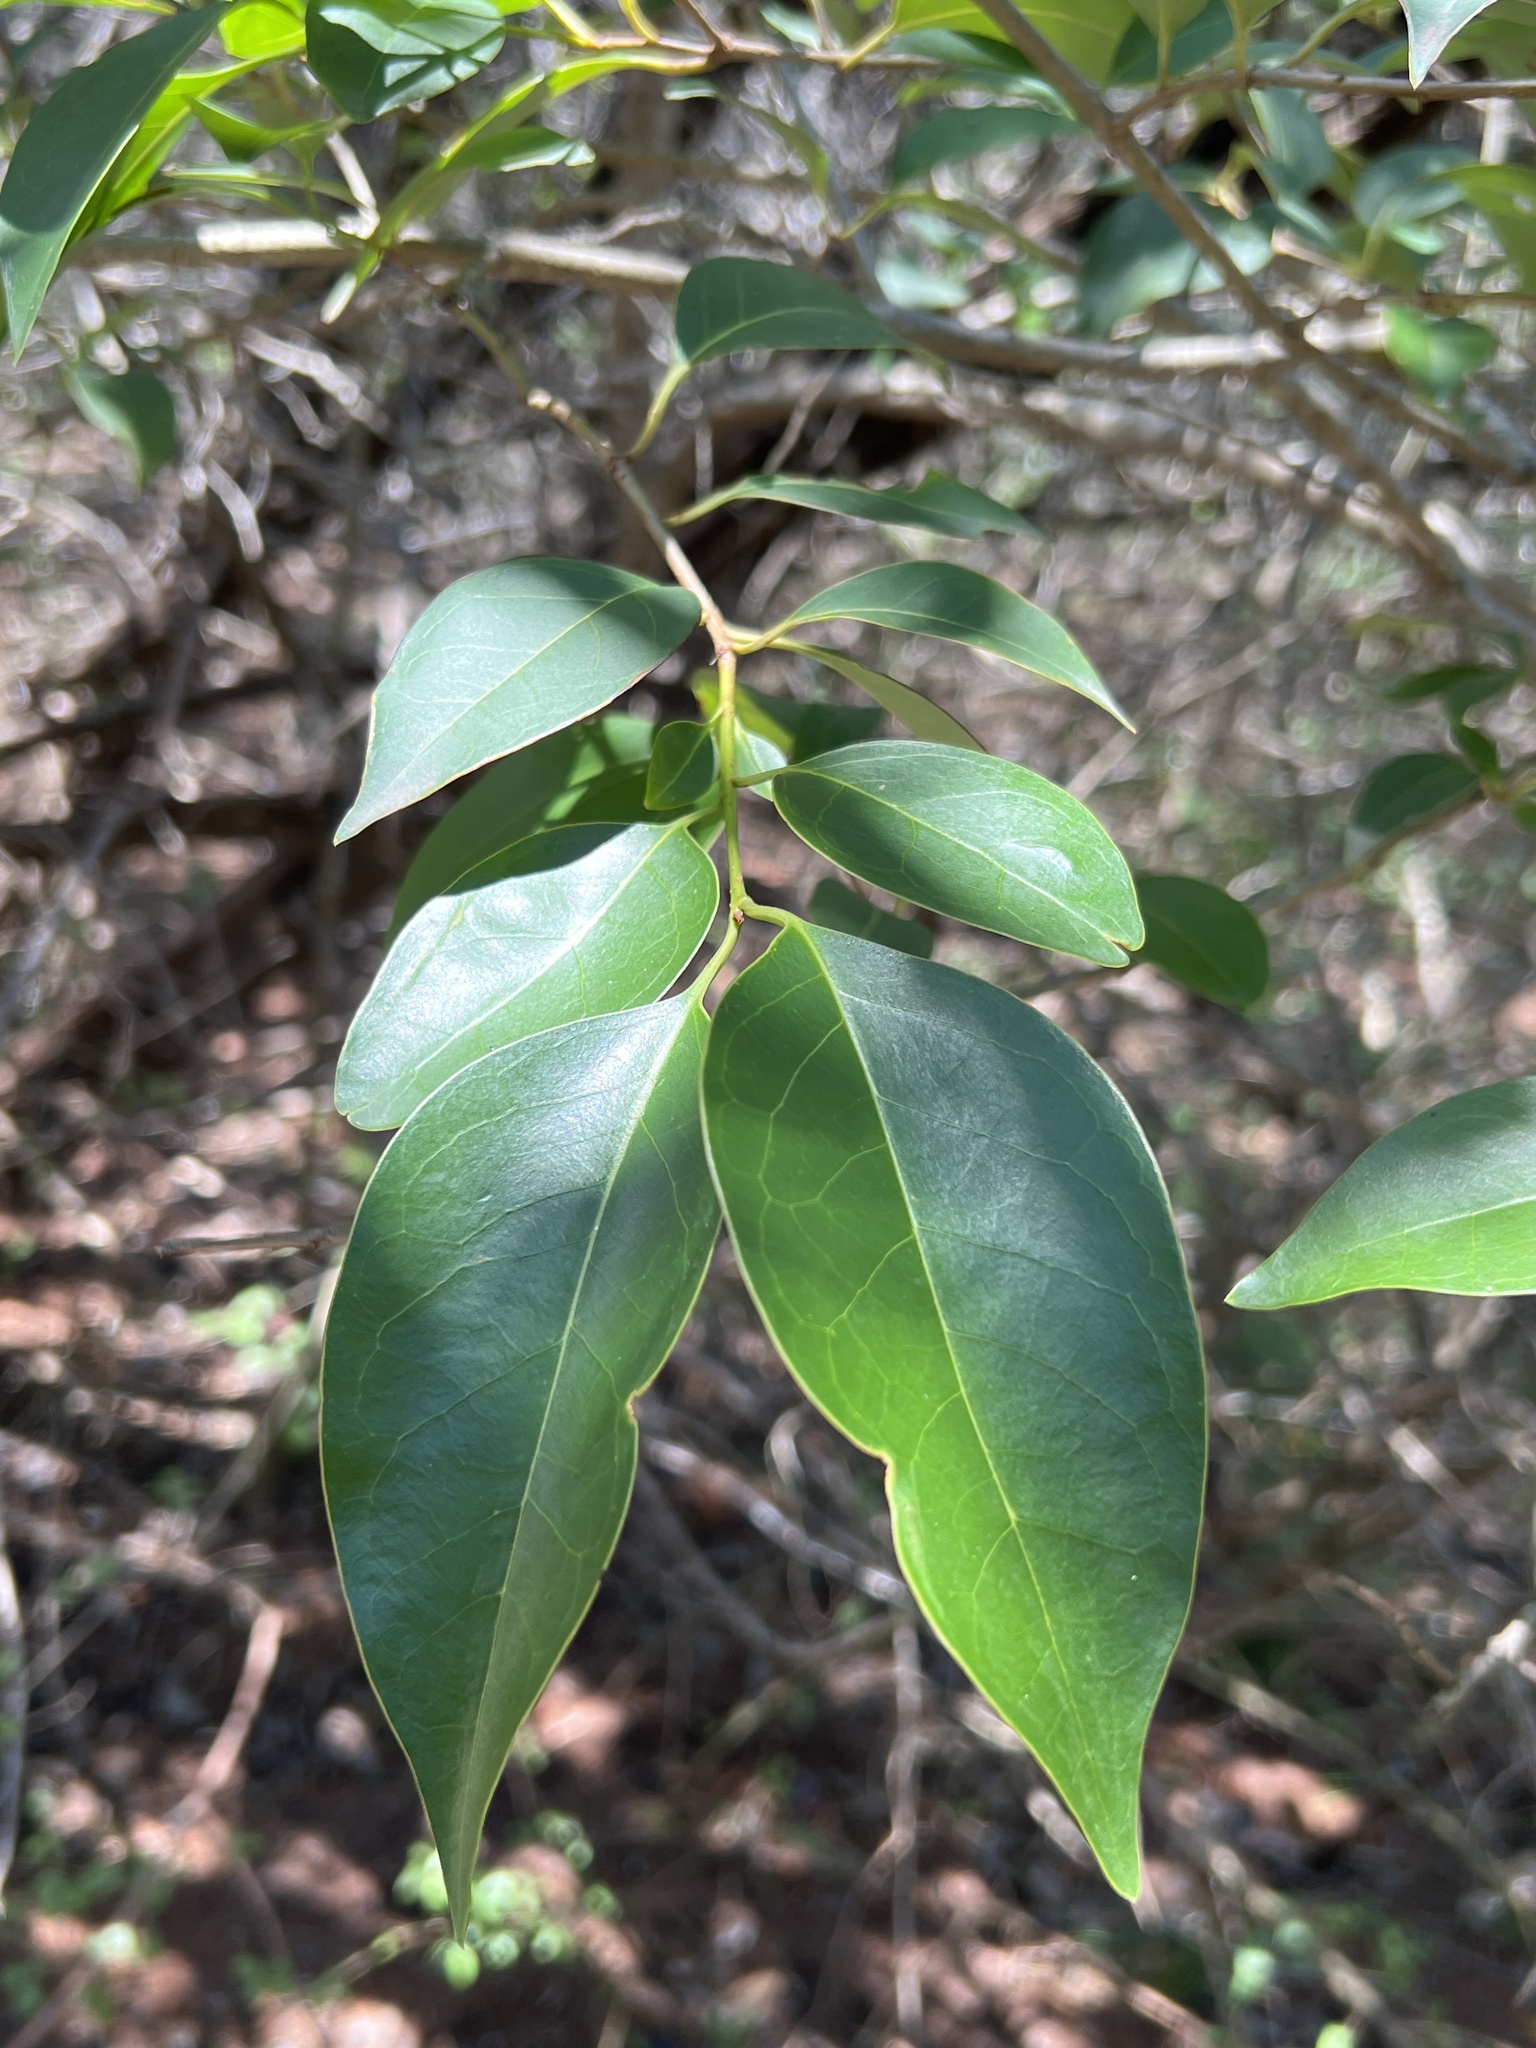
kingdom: Plantae
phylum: Tracheophyta
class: Magnoliopsida
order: Lamiales
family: Oleaceae
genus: Ligustrum
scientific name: Ligustrum lucidum
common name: Glossy privet
